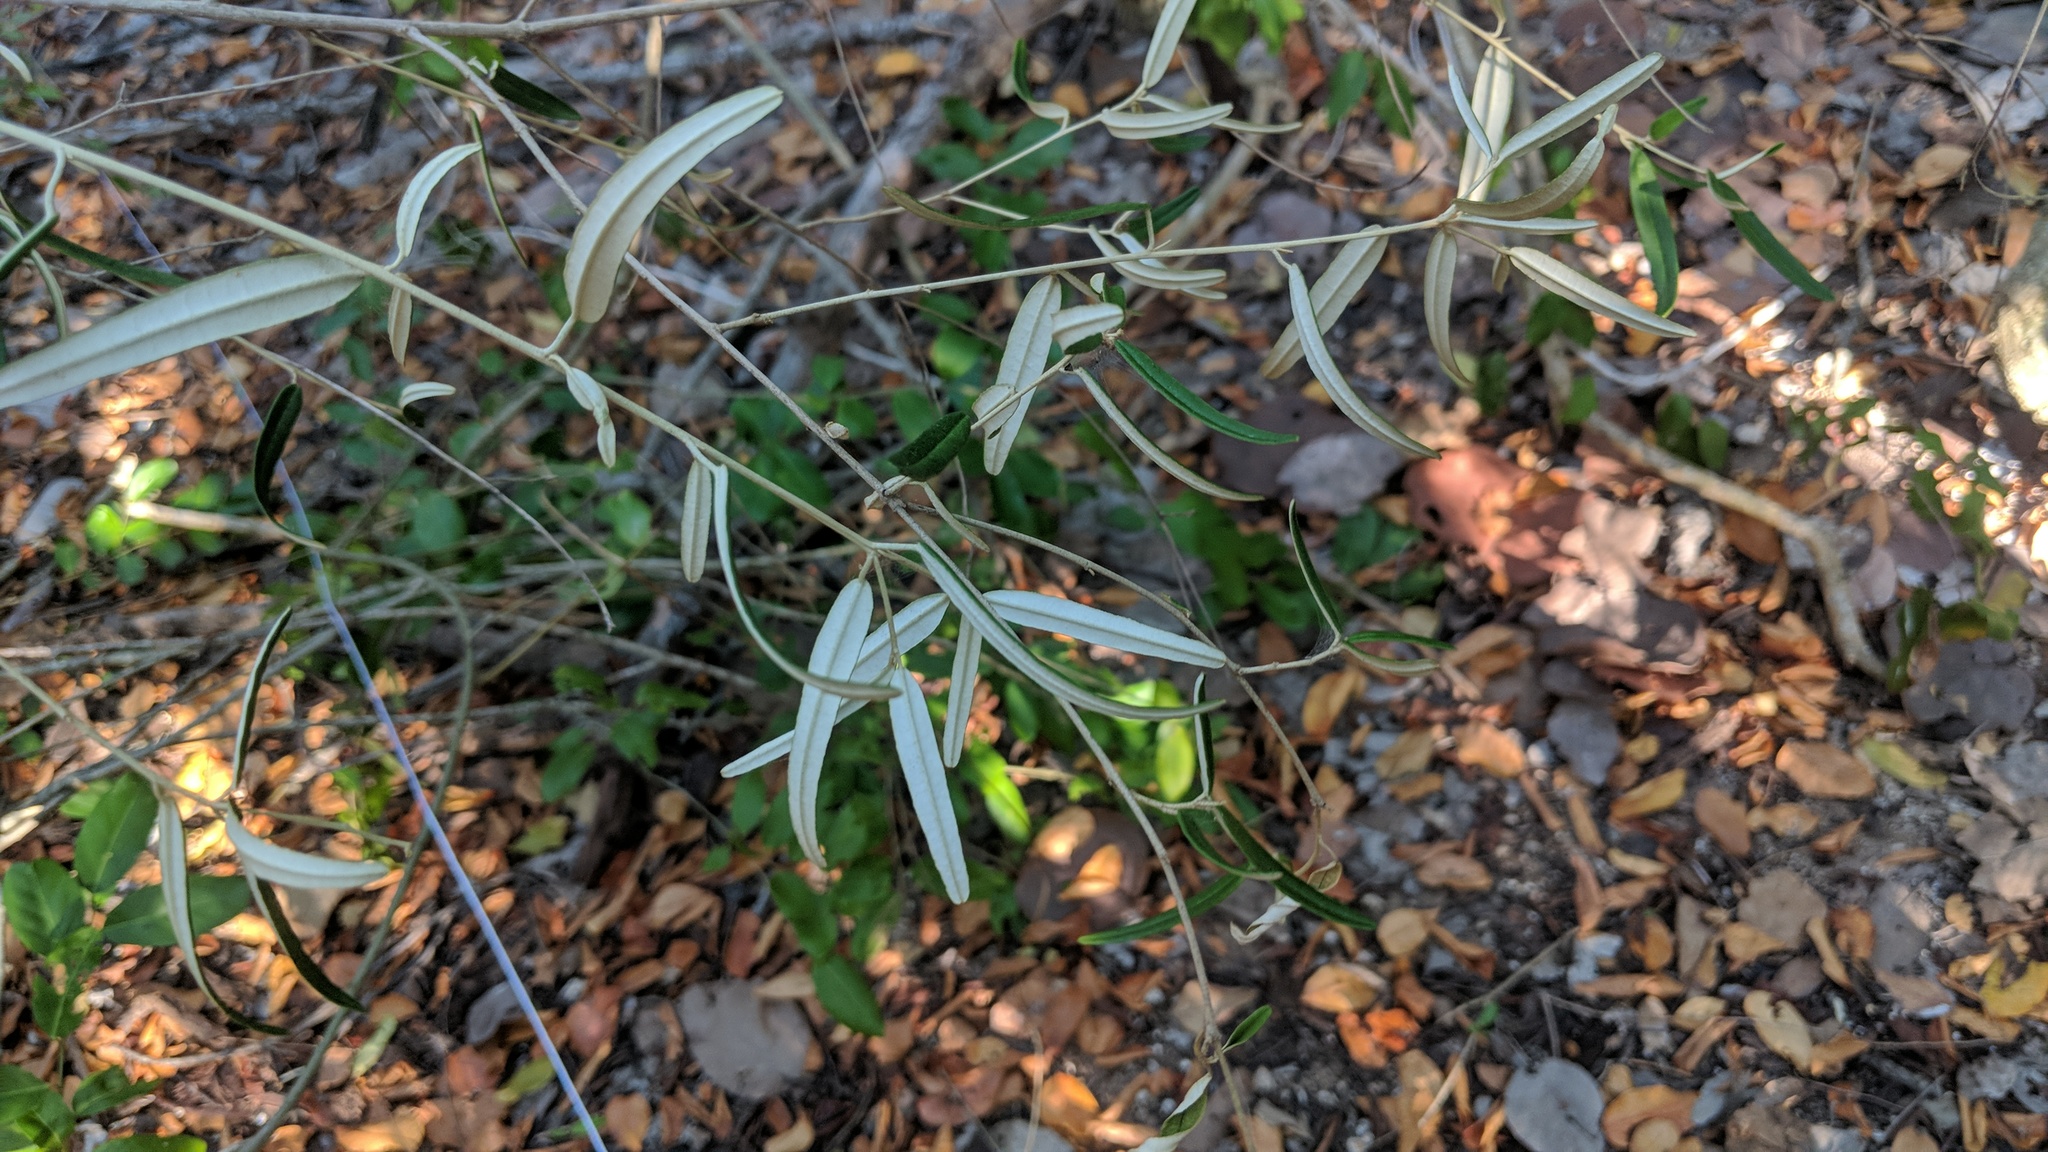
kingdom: Plantae
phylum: Tracheophyta
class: Magnoliopsida
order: Malpighiales
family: Euphorbiaceae
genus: Croton
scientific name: Croton linearis
